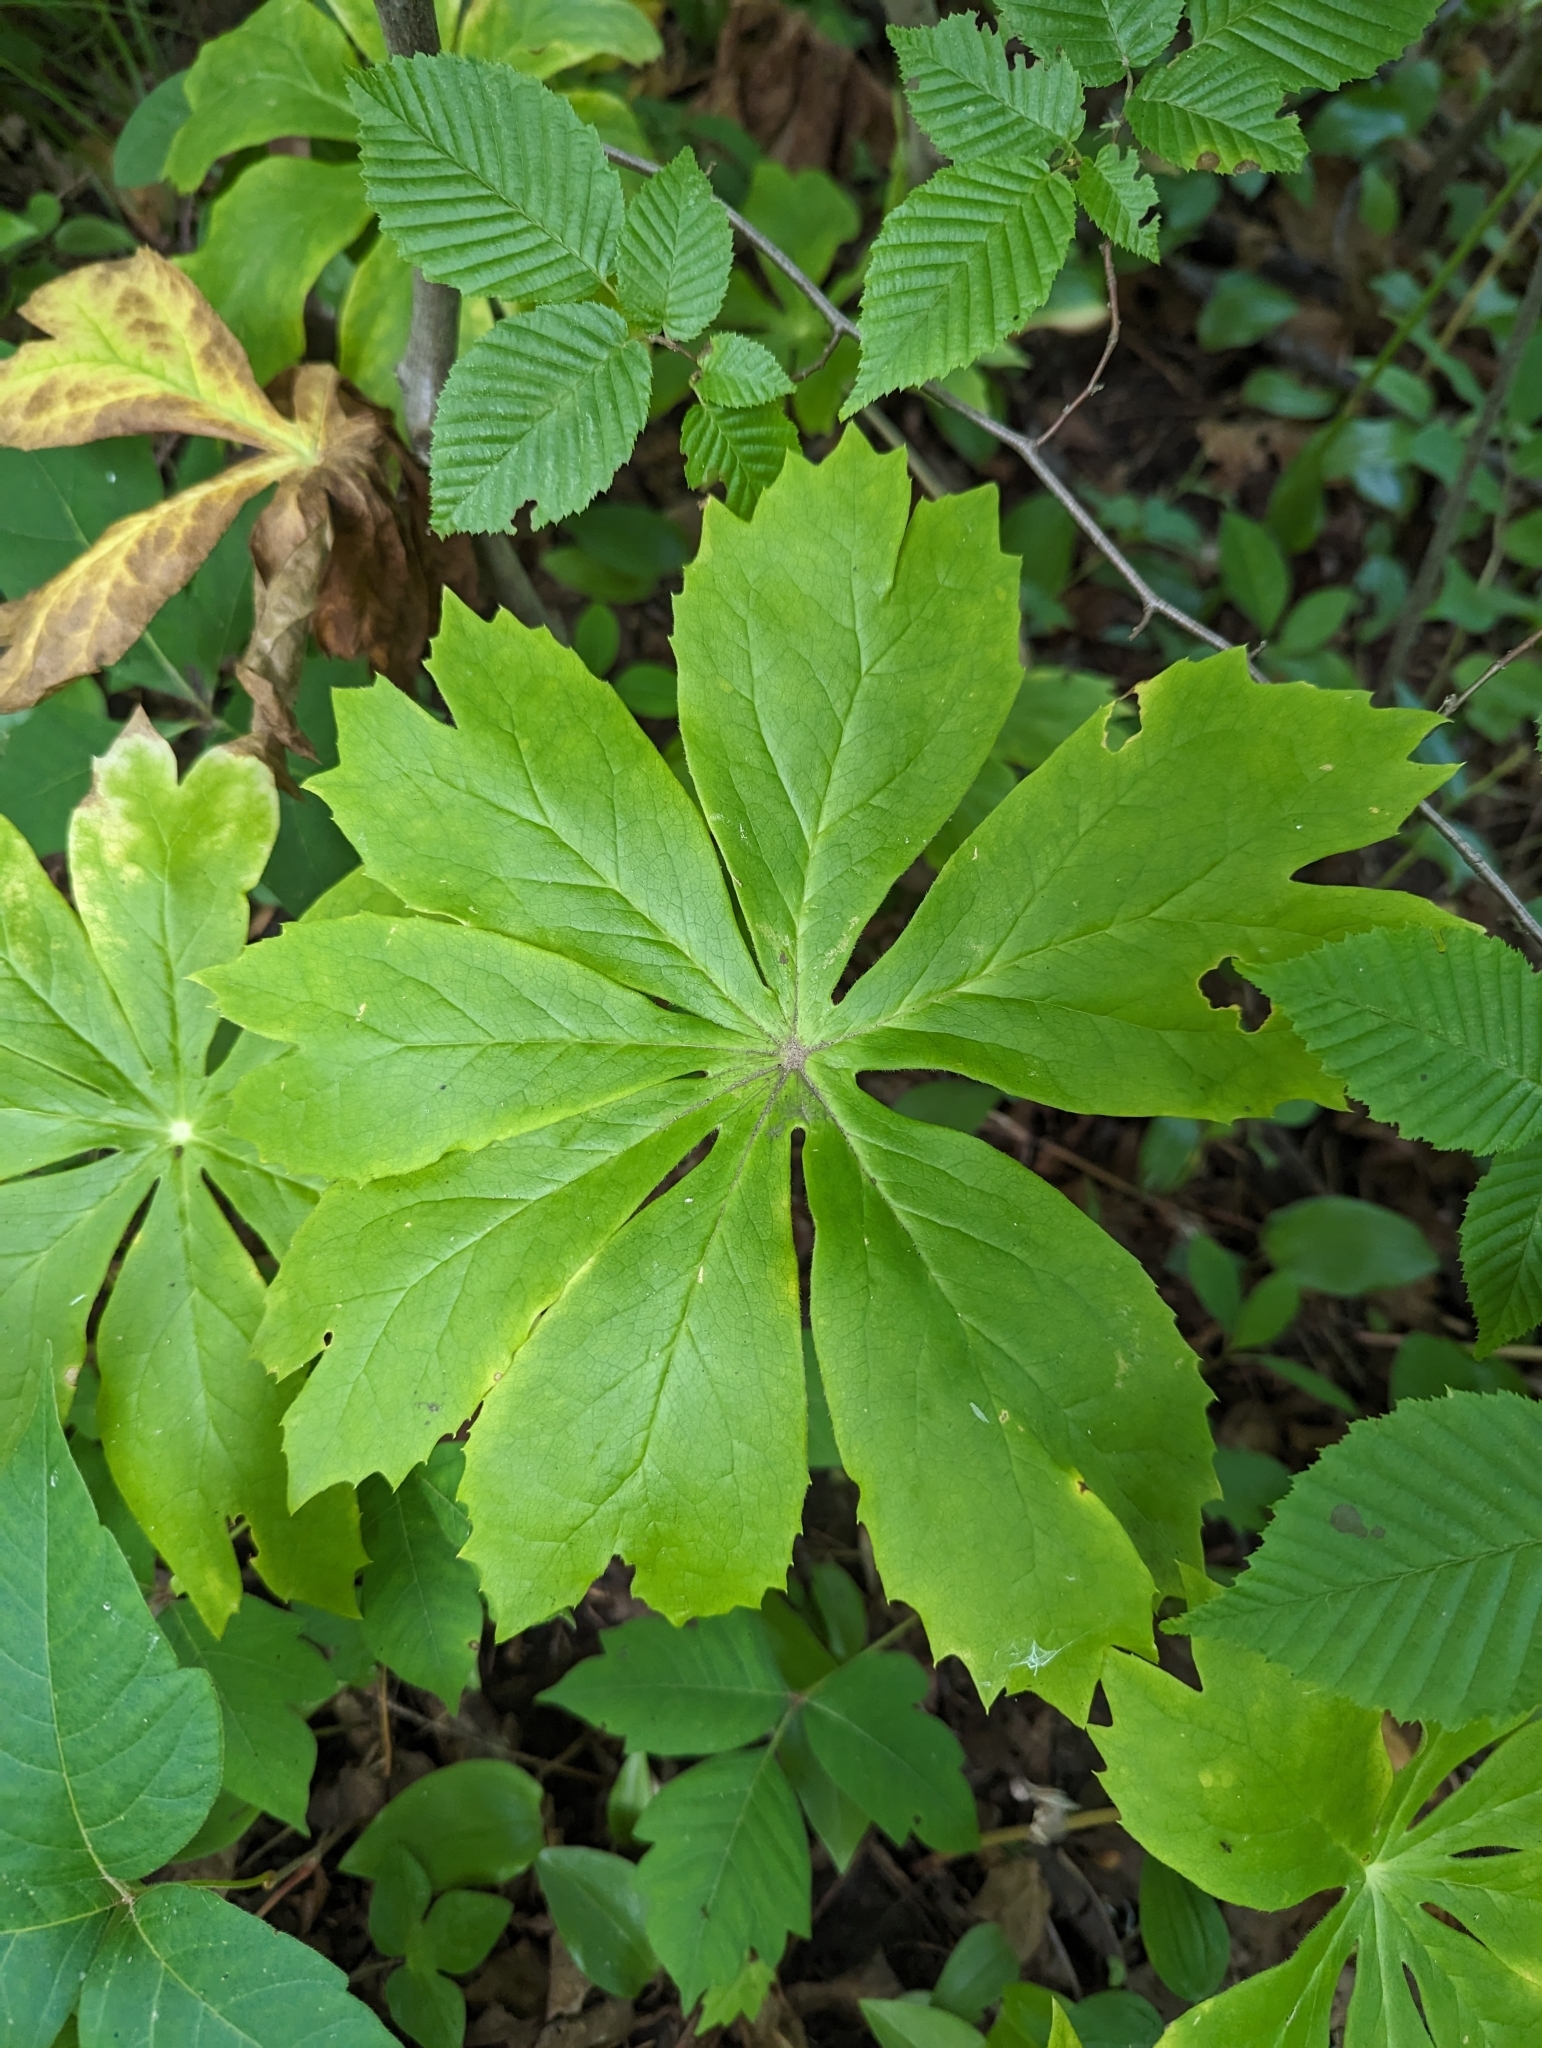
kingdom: Plantae
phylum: Tracheophyta
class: Magnoliopsida
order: Ranunculales
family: Berberidaceae
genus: Podophyllum
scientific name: Podophyllum peltatum
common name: Wild mandrake
